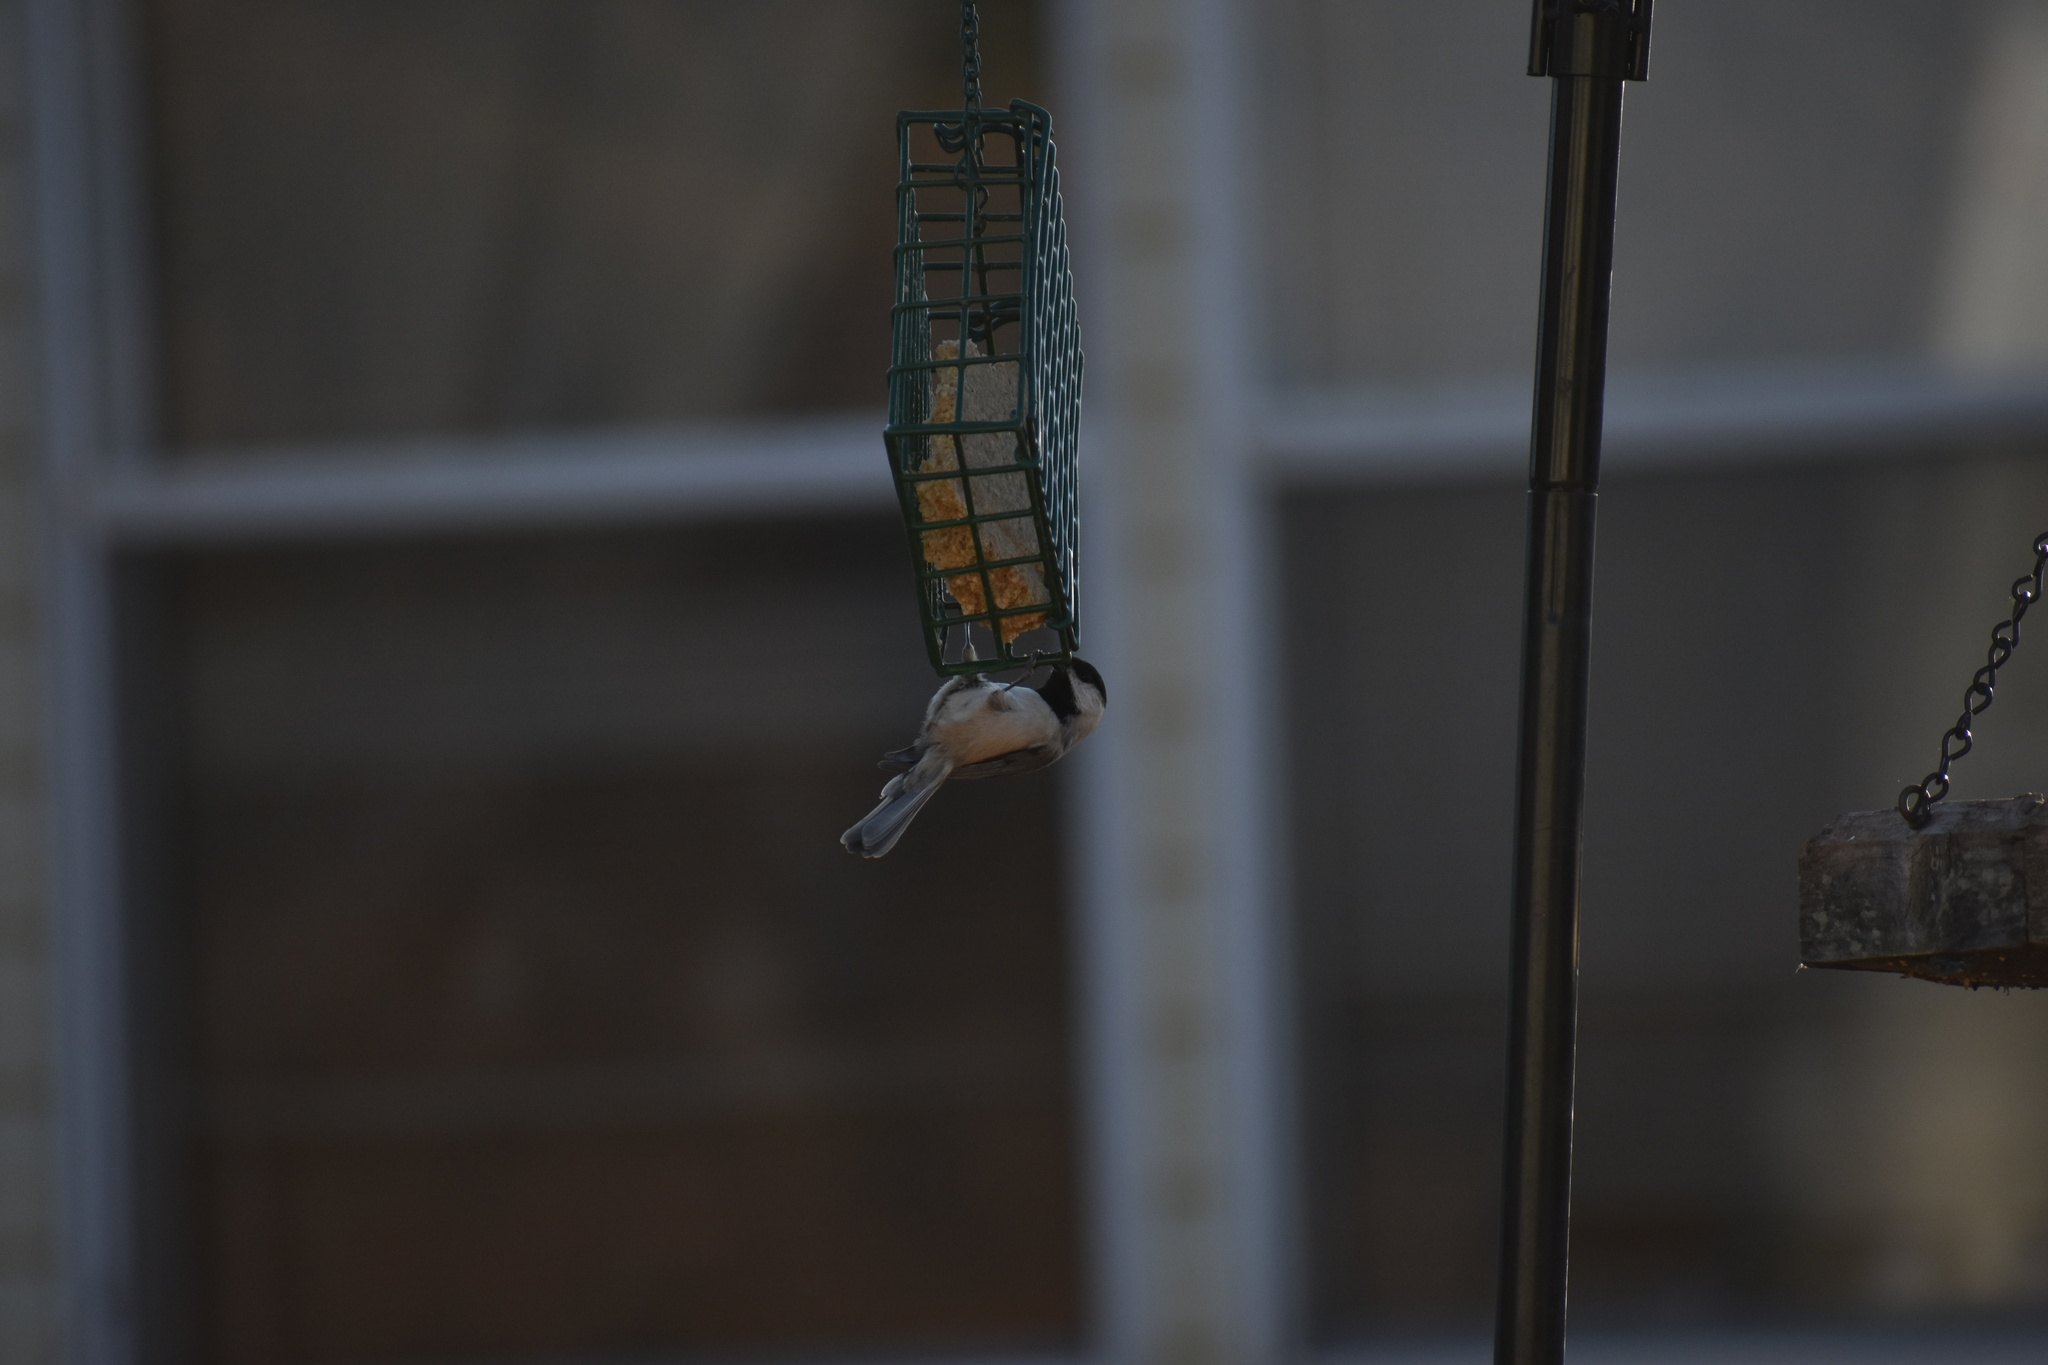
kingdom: Animalia
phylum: Chordata
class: Aves
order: Passeriformes
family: Paridae
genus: Poecile
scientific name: Poecile carolinensis
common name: Carolina chickadee
